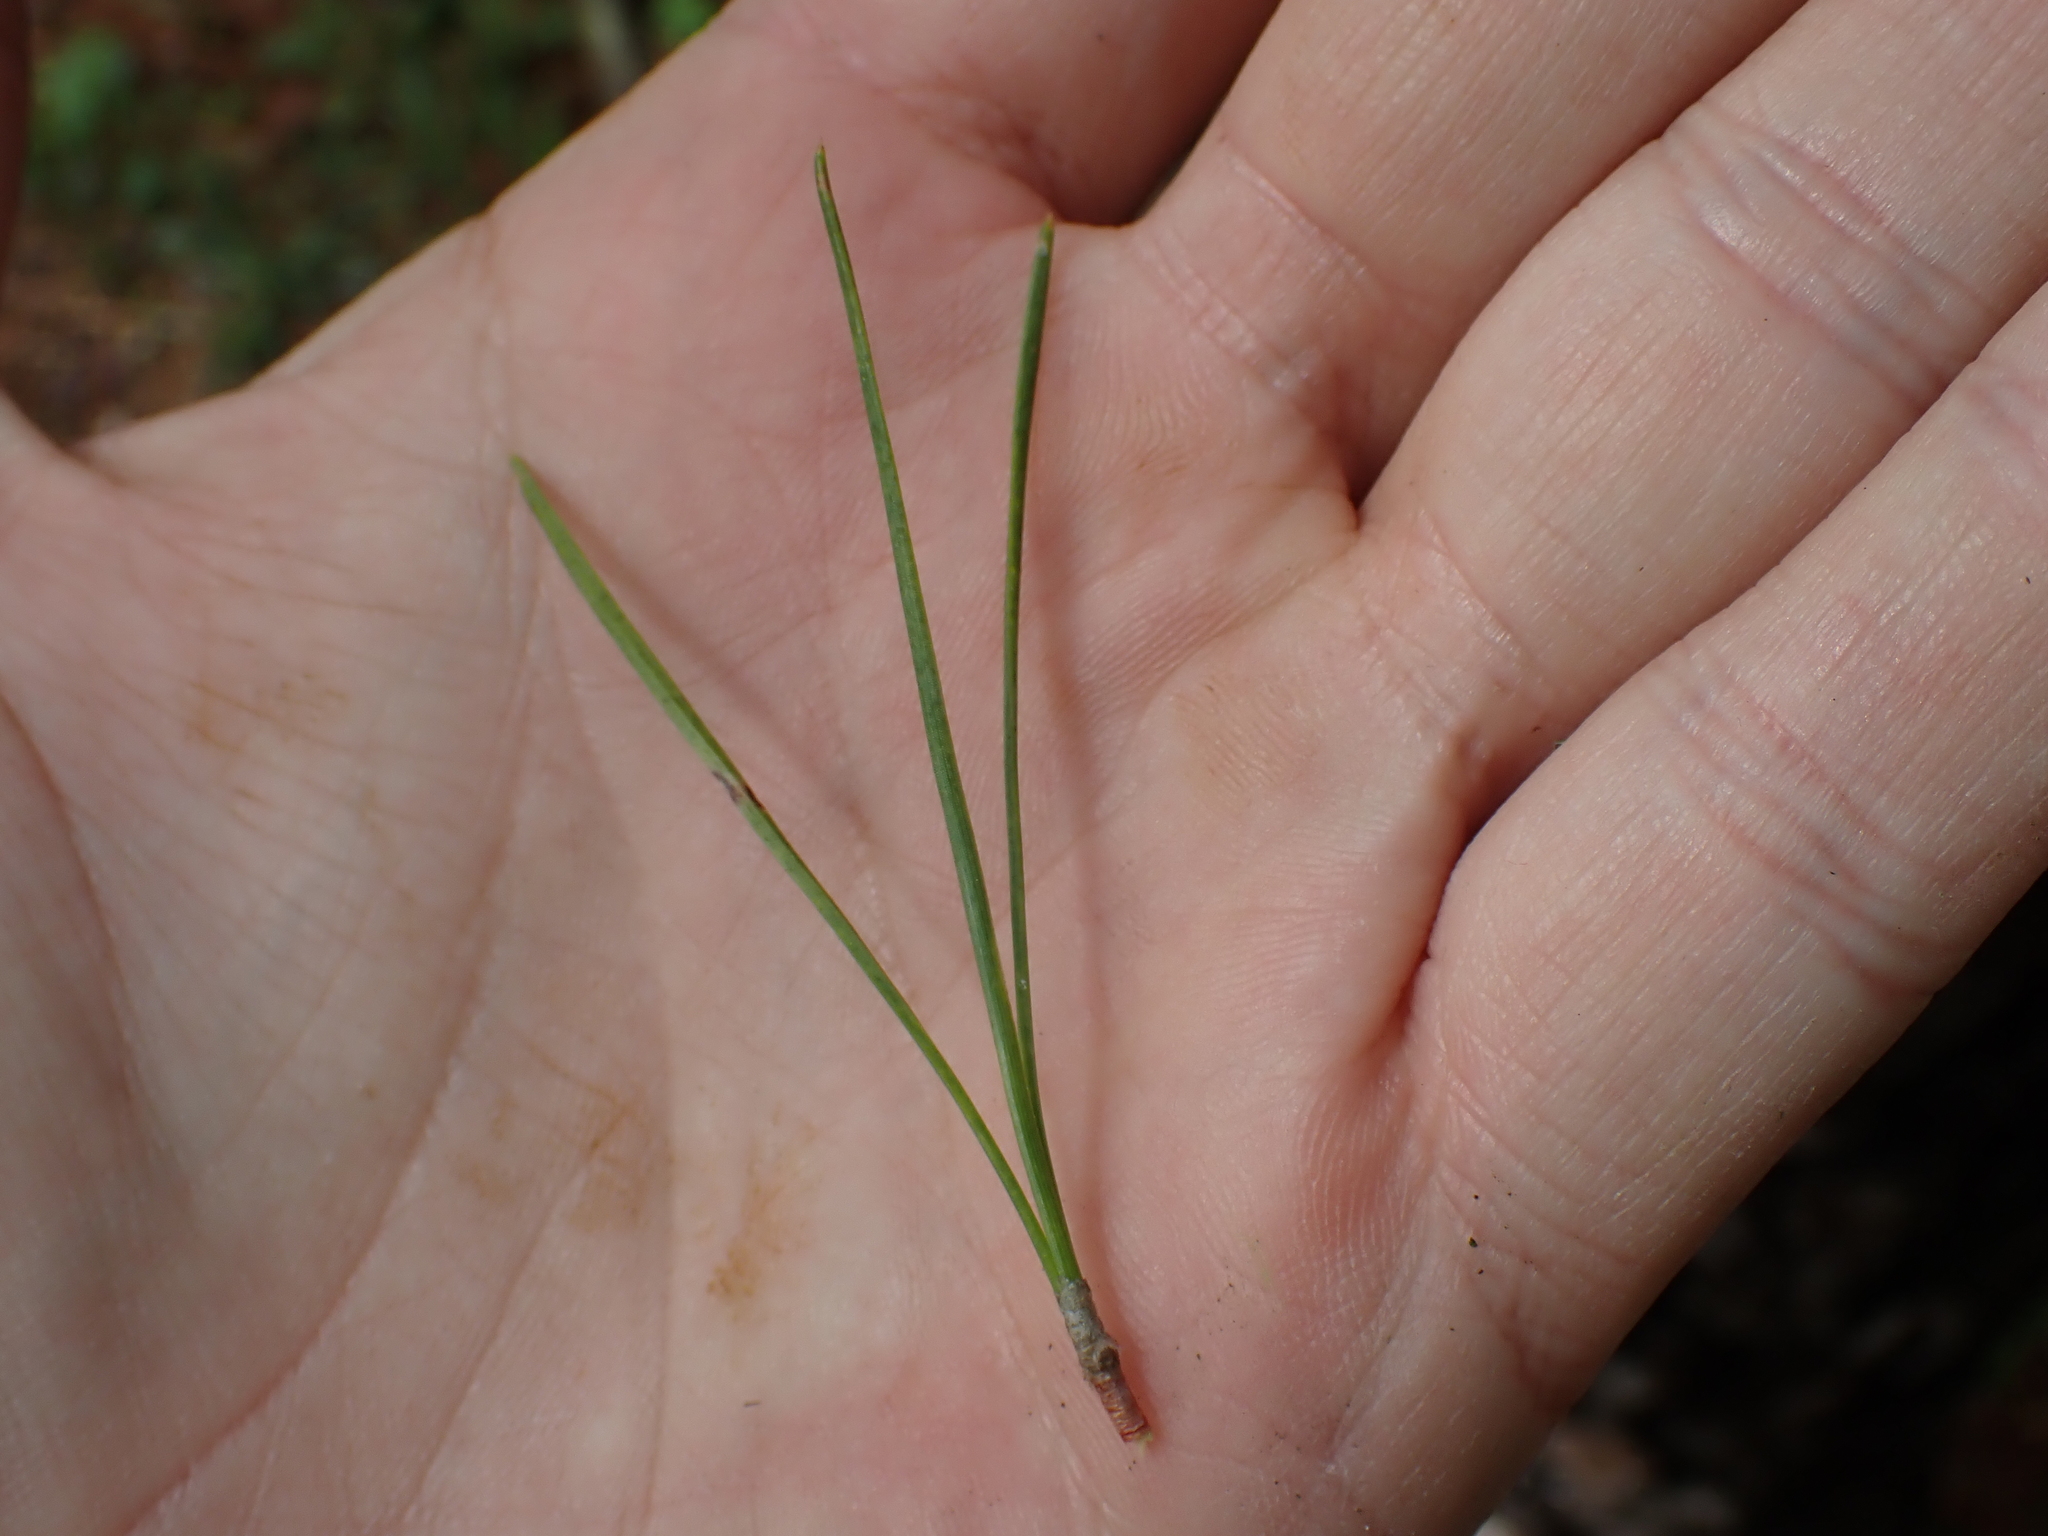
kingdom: Plantae
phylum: Tracheophyta
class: Pinopsida
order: Pinales
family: Pinaceae
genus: Pinus
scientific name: Pinus rigida
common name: Pitch pine
